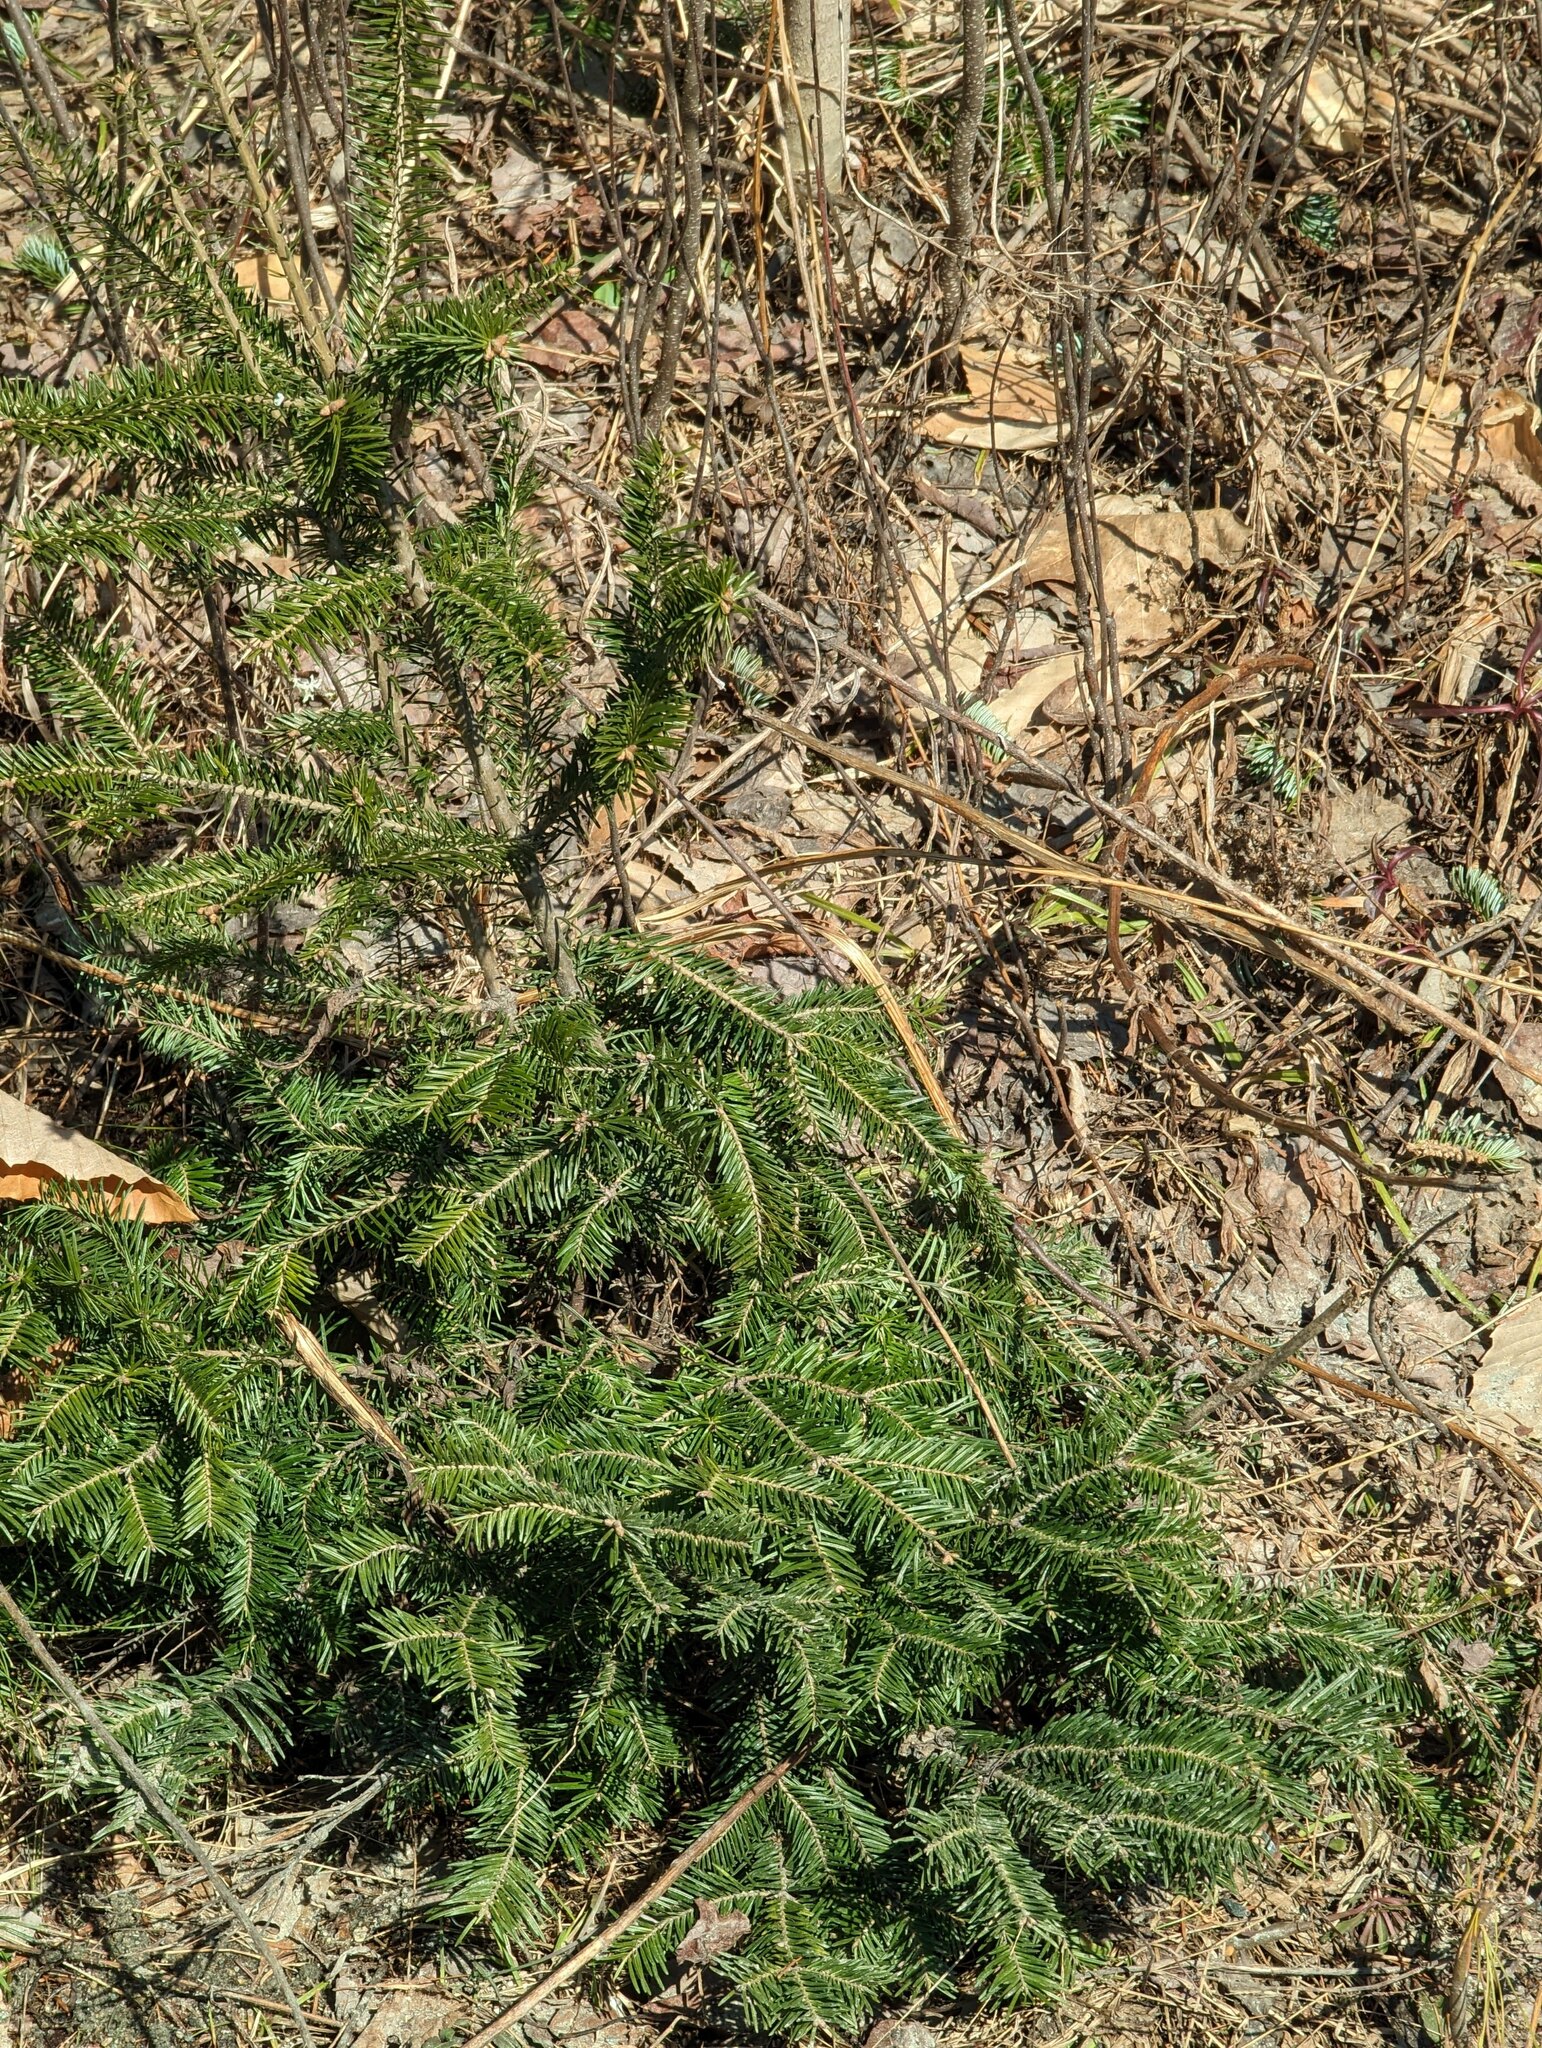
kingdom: Plantae
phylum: Tracheophyta
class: Pinopsida
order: Pinales
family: Pinaceae
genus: Abies
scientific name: Abies balsamea
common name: Balsam fir
